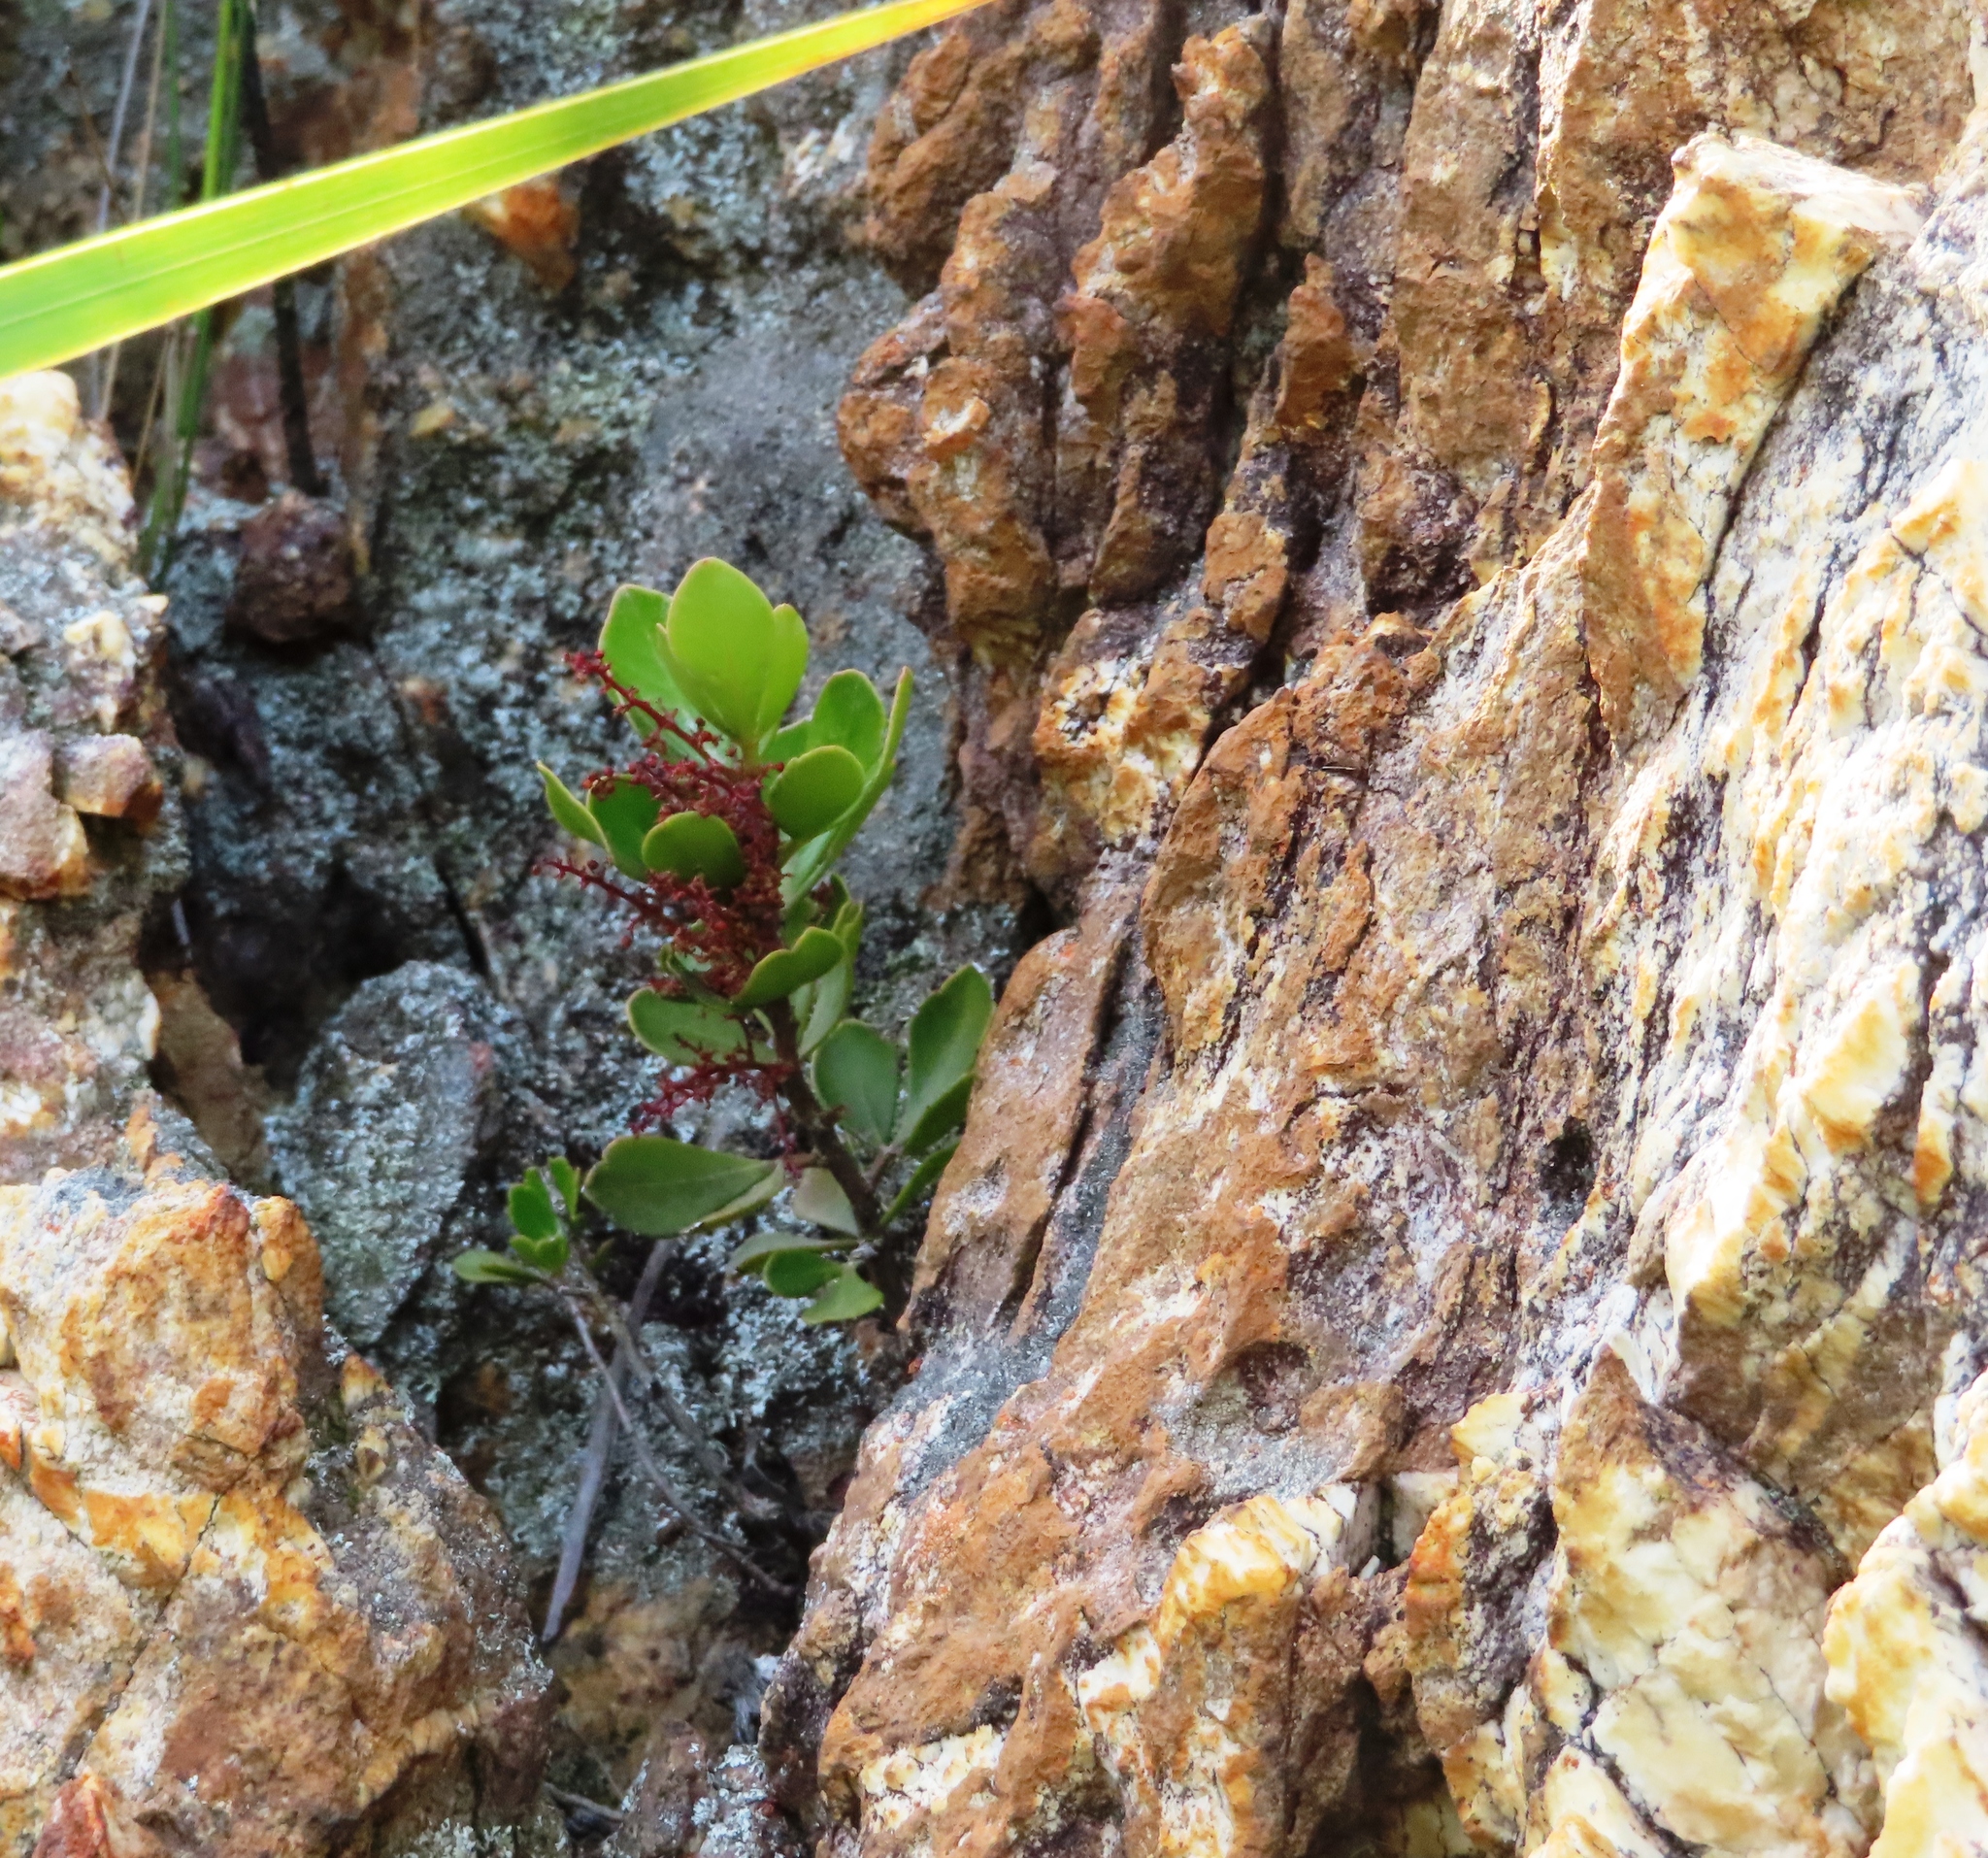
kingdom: Plantae
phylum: Tracheophyta
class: Magnoliopsida
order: Sapindales
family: Anacardiaceae
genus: Searsia
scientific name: Searsia scytophylla
